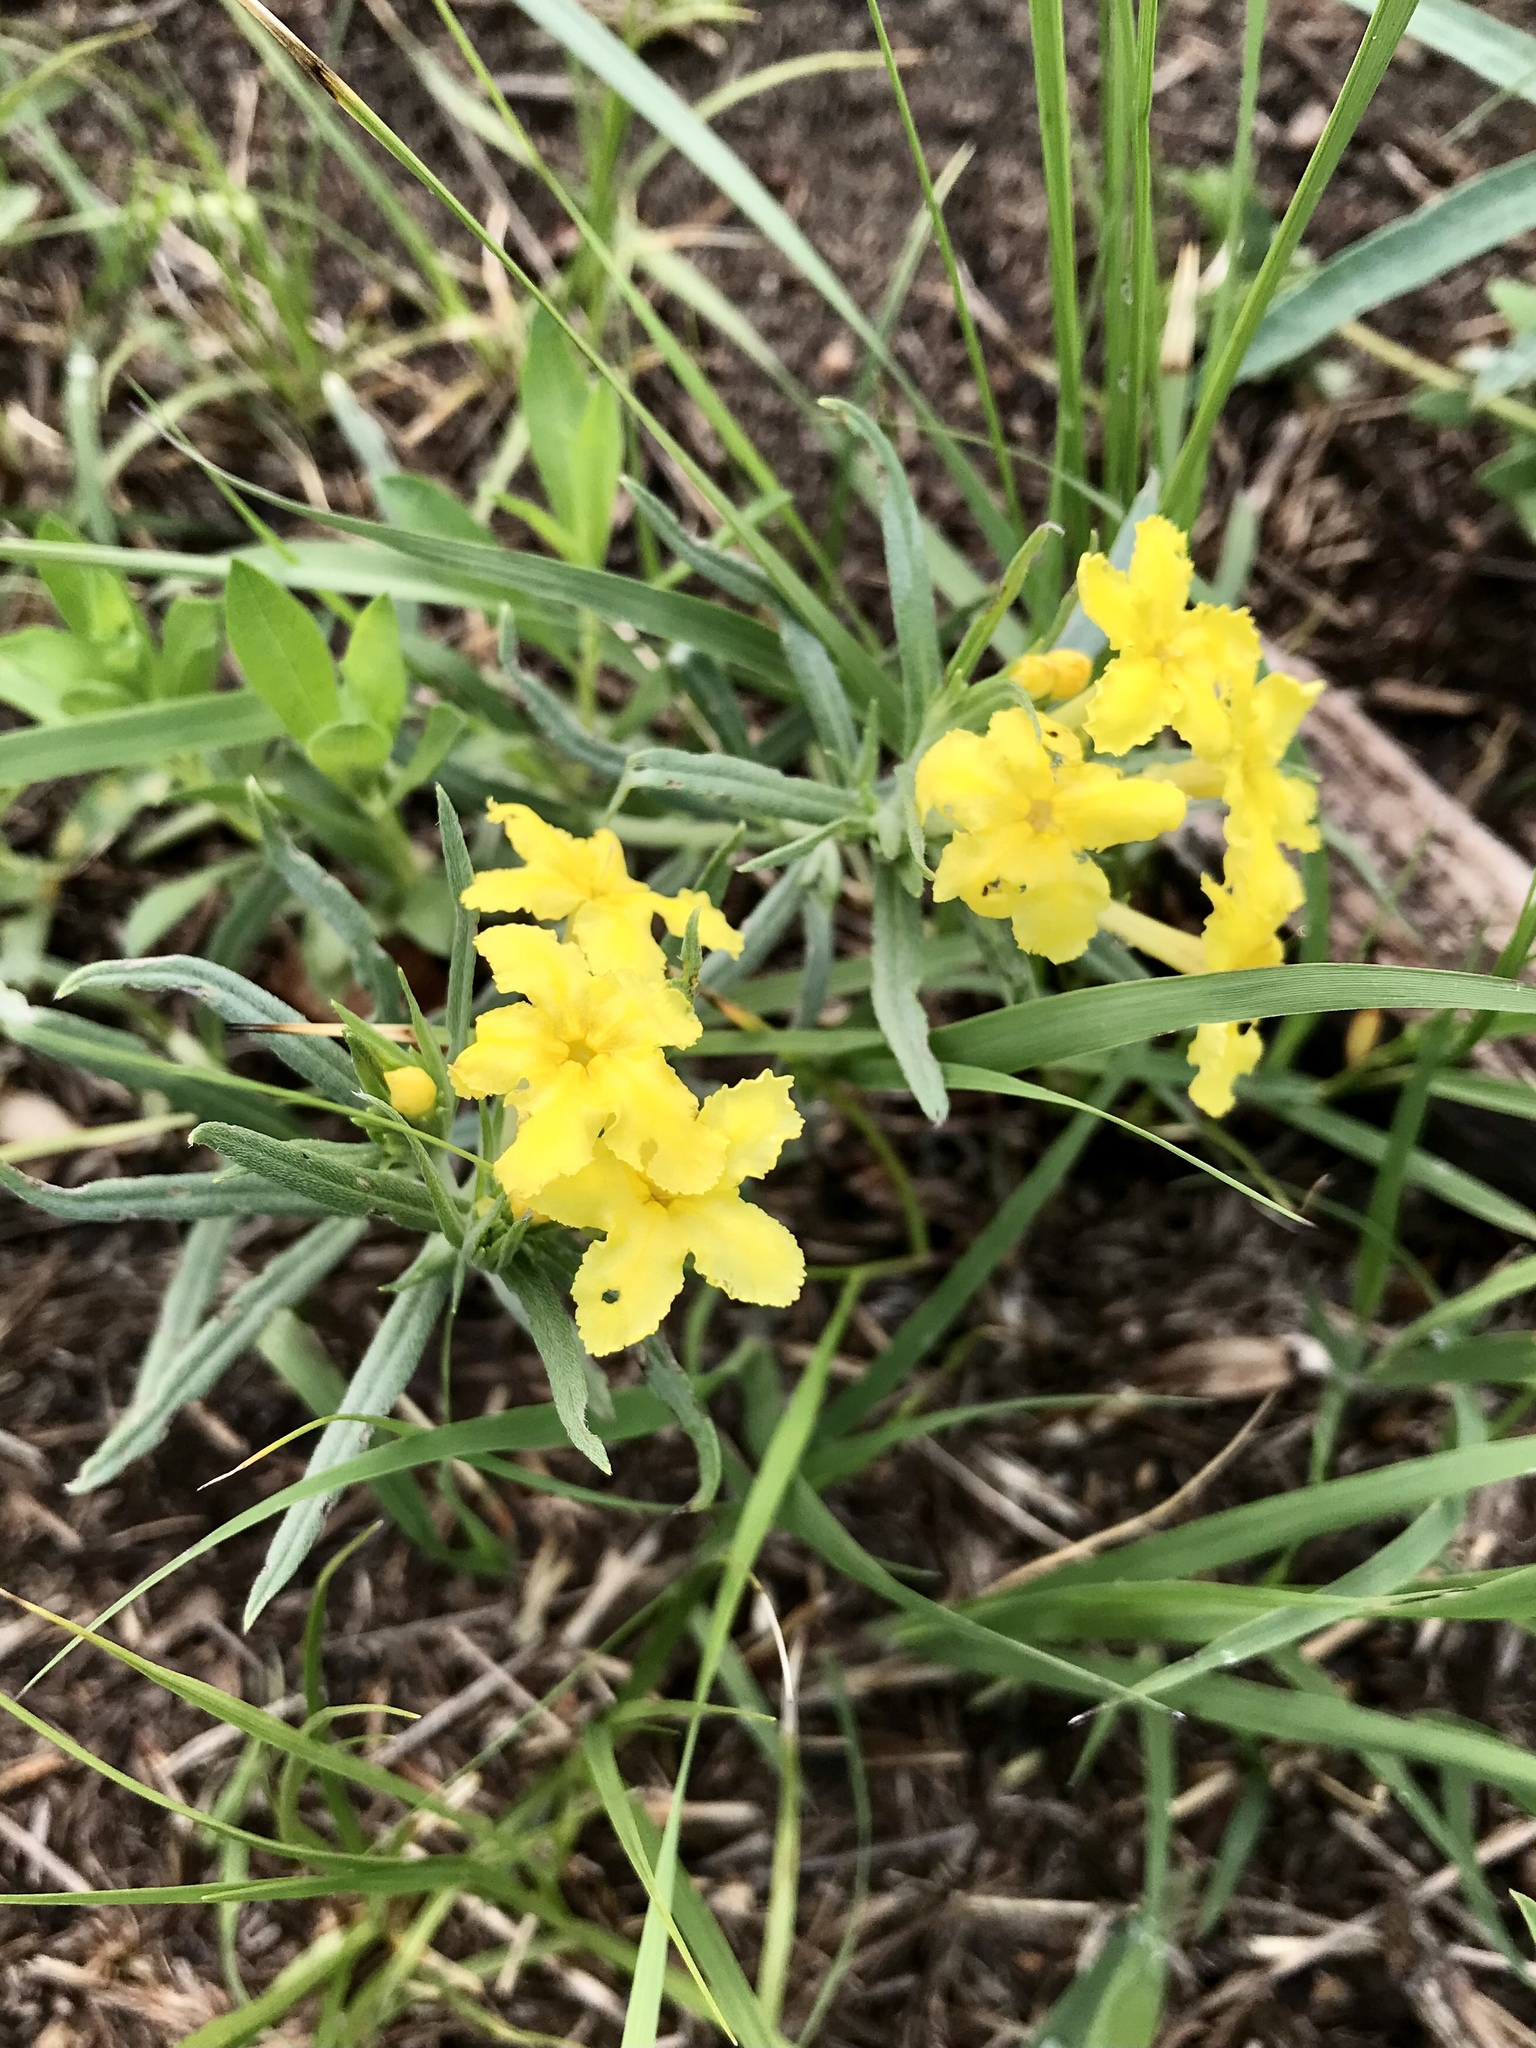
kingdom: Plantae
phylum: Tracheophyta
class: Magnoliopsida
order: Boraginales
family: Boraginaceae
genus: Lithospermum
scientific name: Lithospermum incisum
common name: Fringed gromwell
